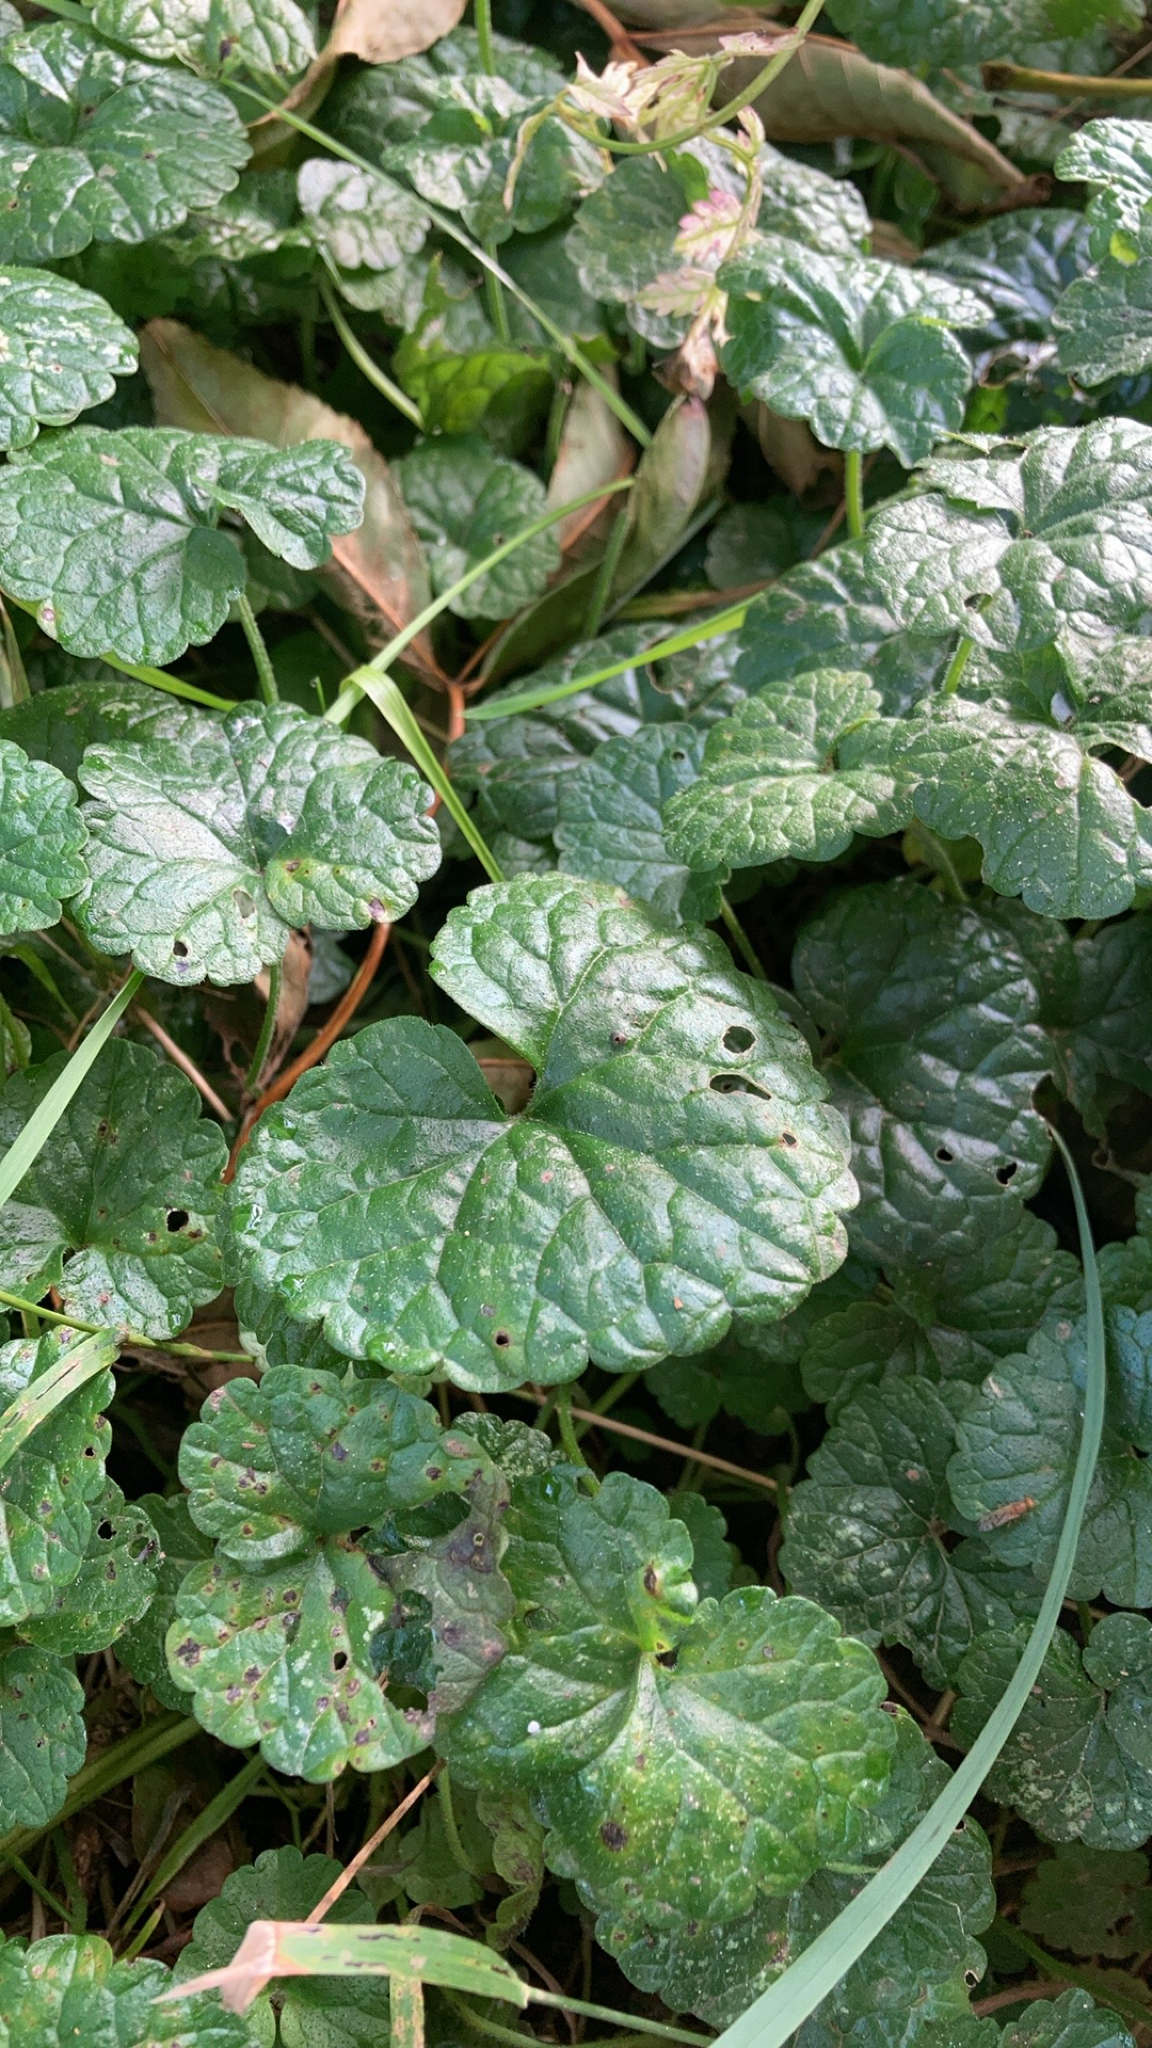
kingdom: Plantae
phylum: Tracheophyta
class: Magnoliopsida
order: Lamiales
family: Lamiaceae
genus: Glechoma
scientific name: Glechoma hederacea
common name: Ground ivy
